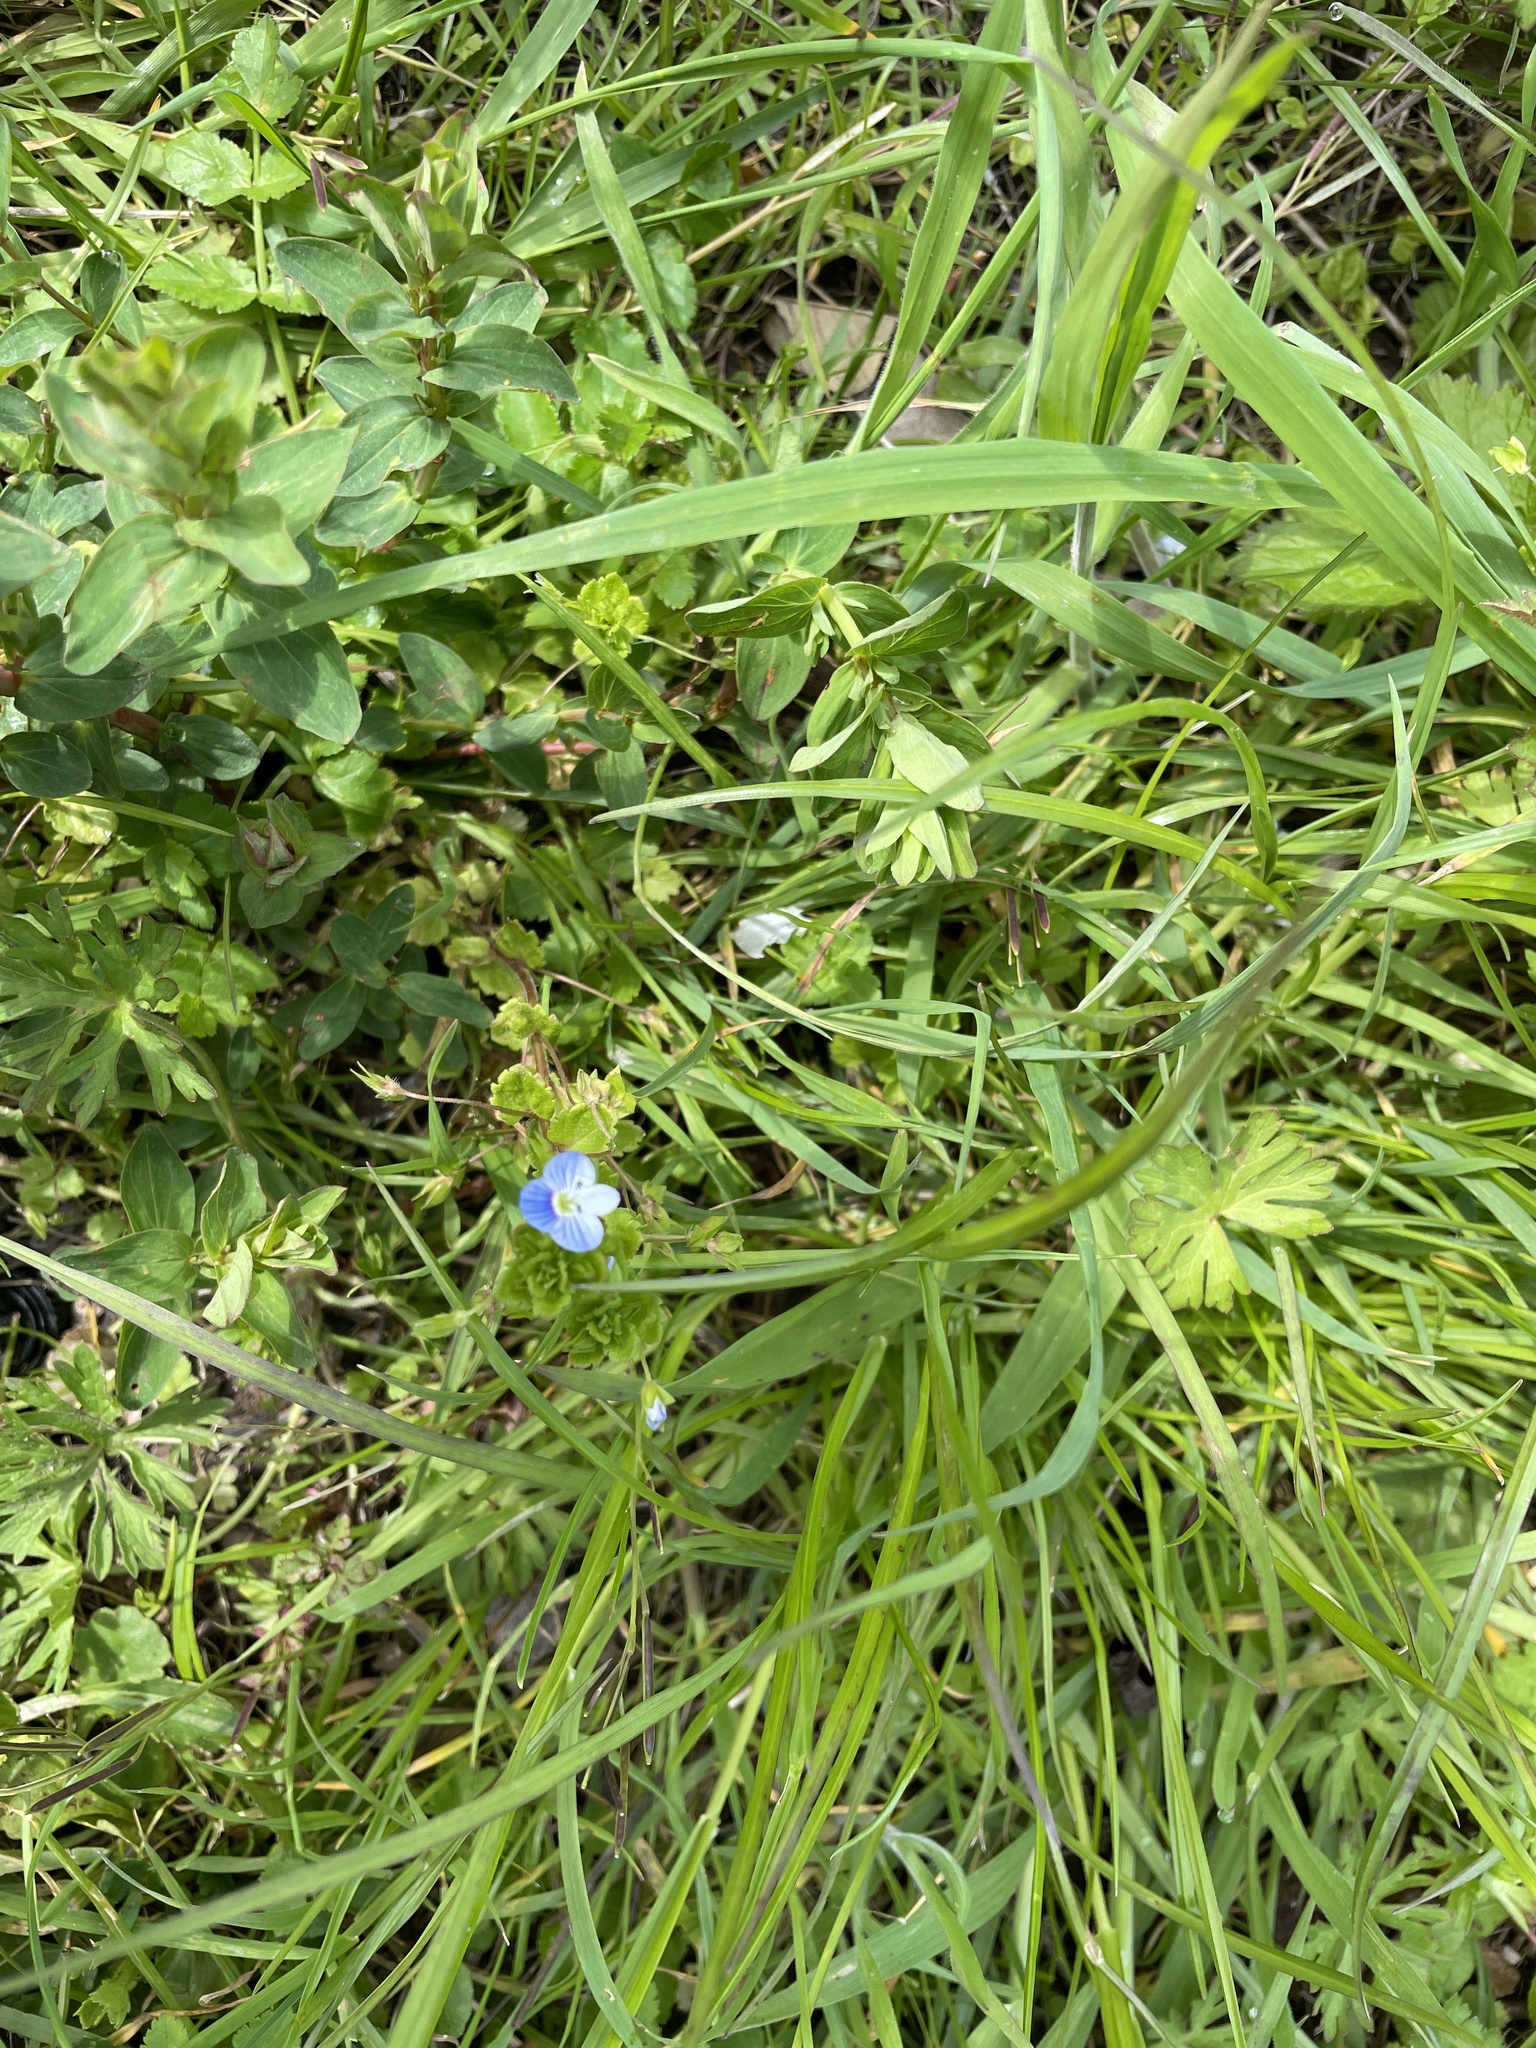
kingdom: Plantae
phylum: Tracheophyta
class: Magnoliopsida
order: Lamiales
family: Plantaginaceae
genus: Veronica
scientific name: Veronica persica
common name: Common field-speedwell
